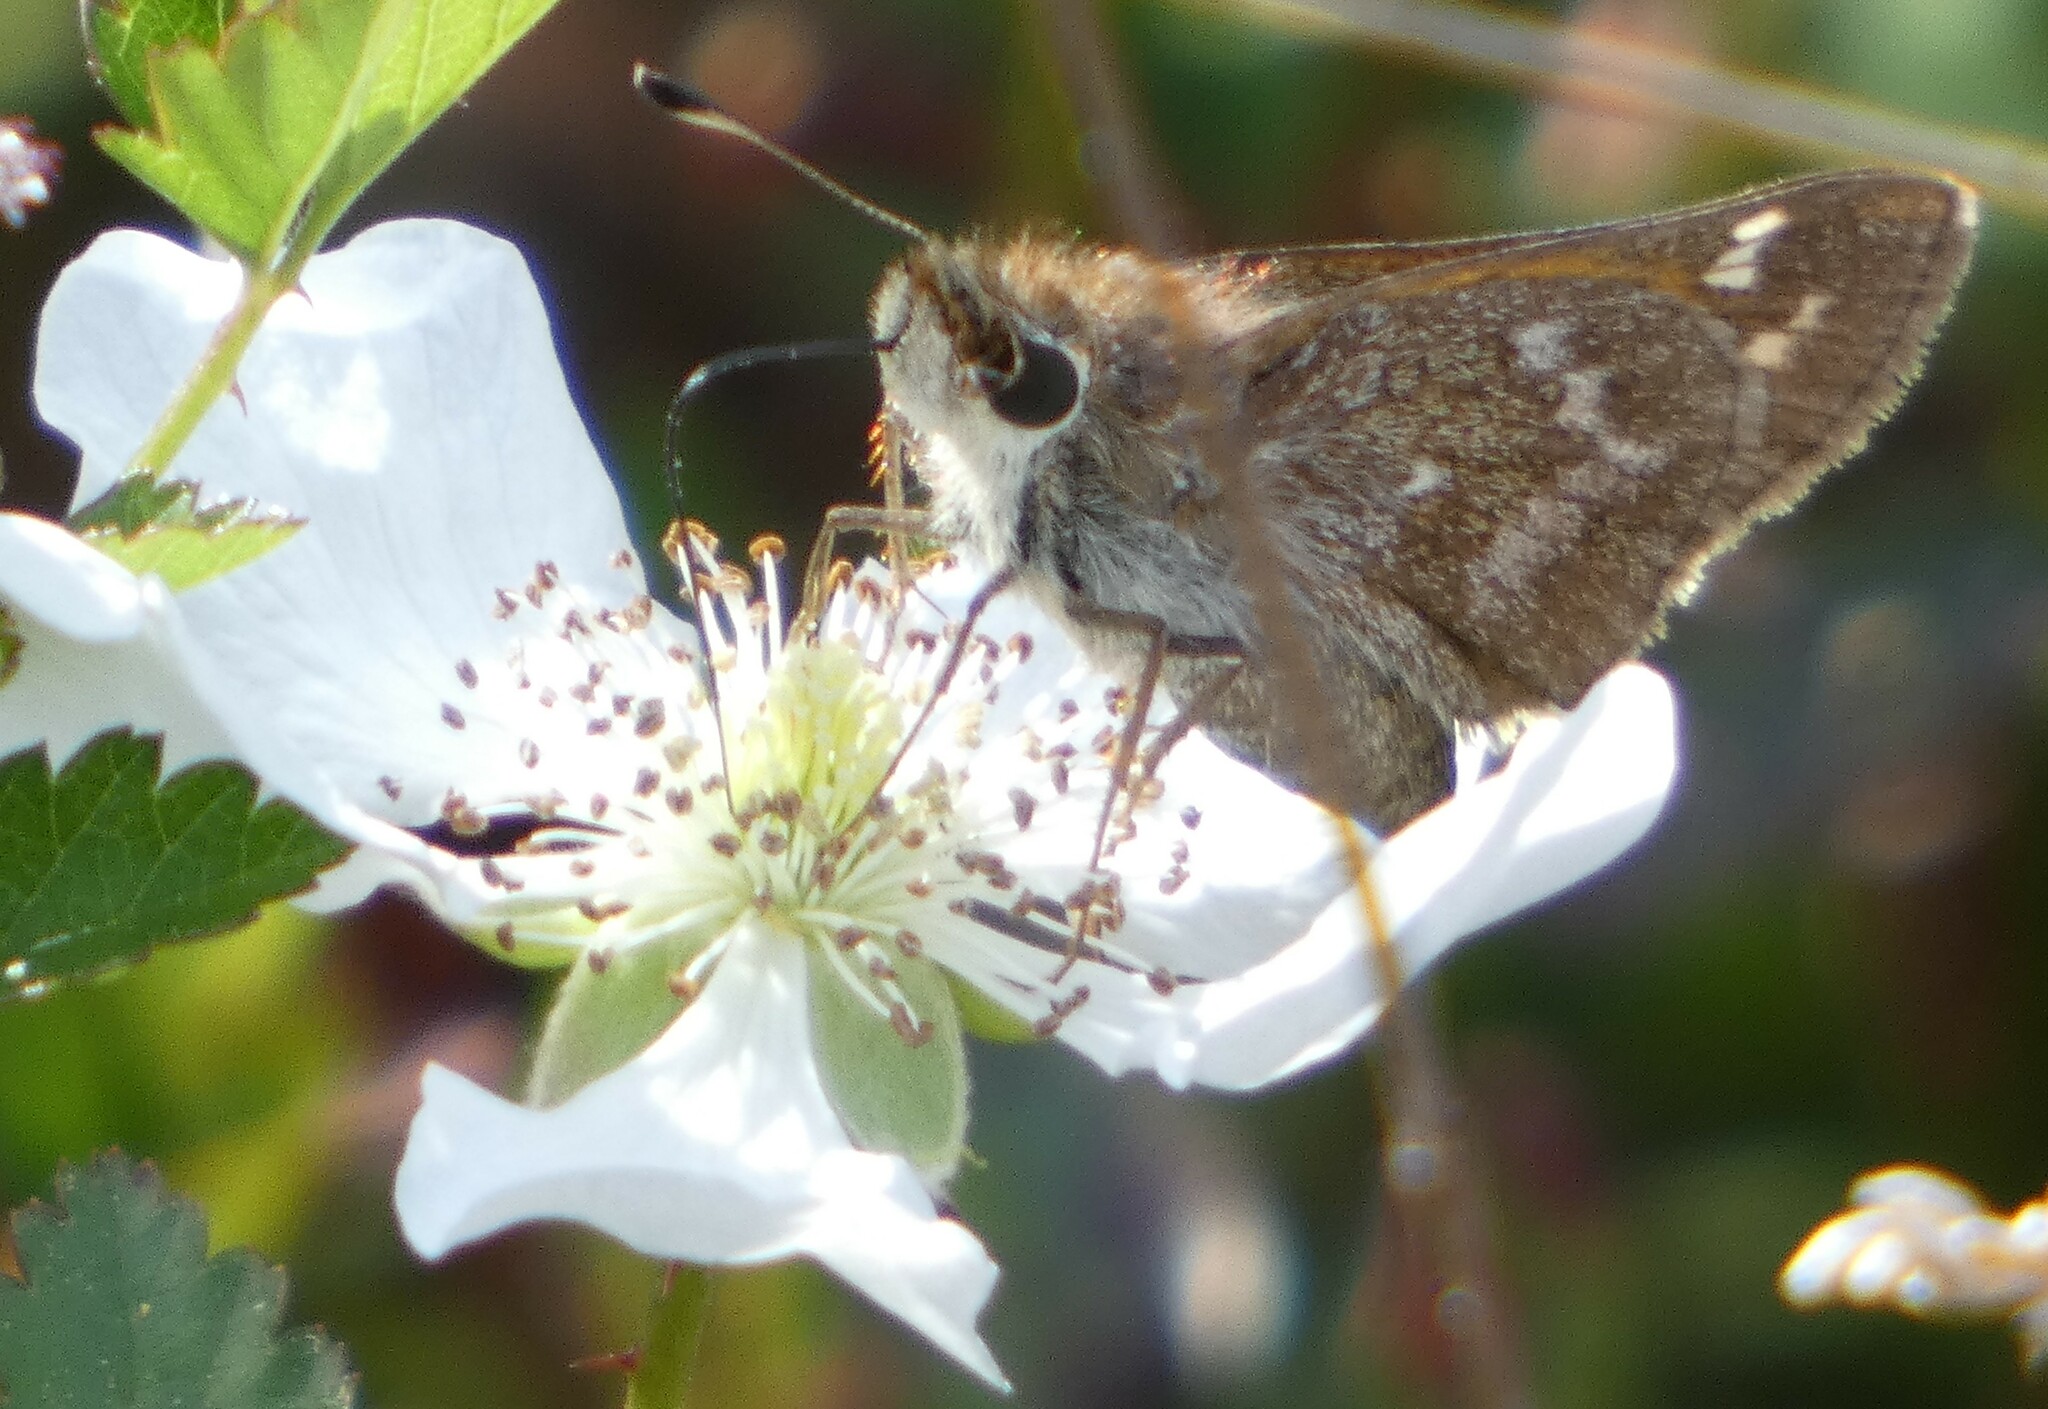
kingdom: Animalia
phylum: Arthropoda
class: Insecta
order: Lepidoptera
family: Hesperiidae
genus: Atalopedes
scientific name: Atalopedes
